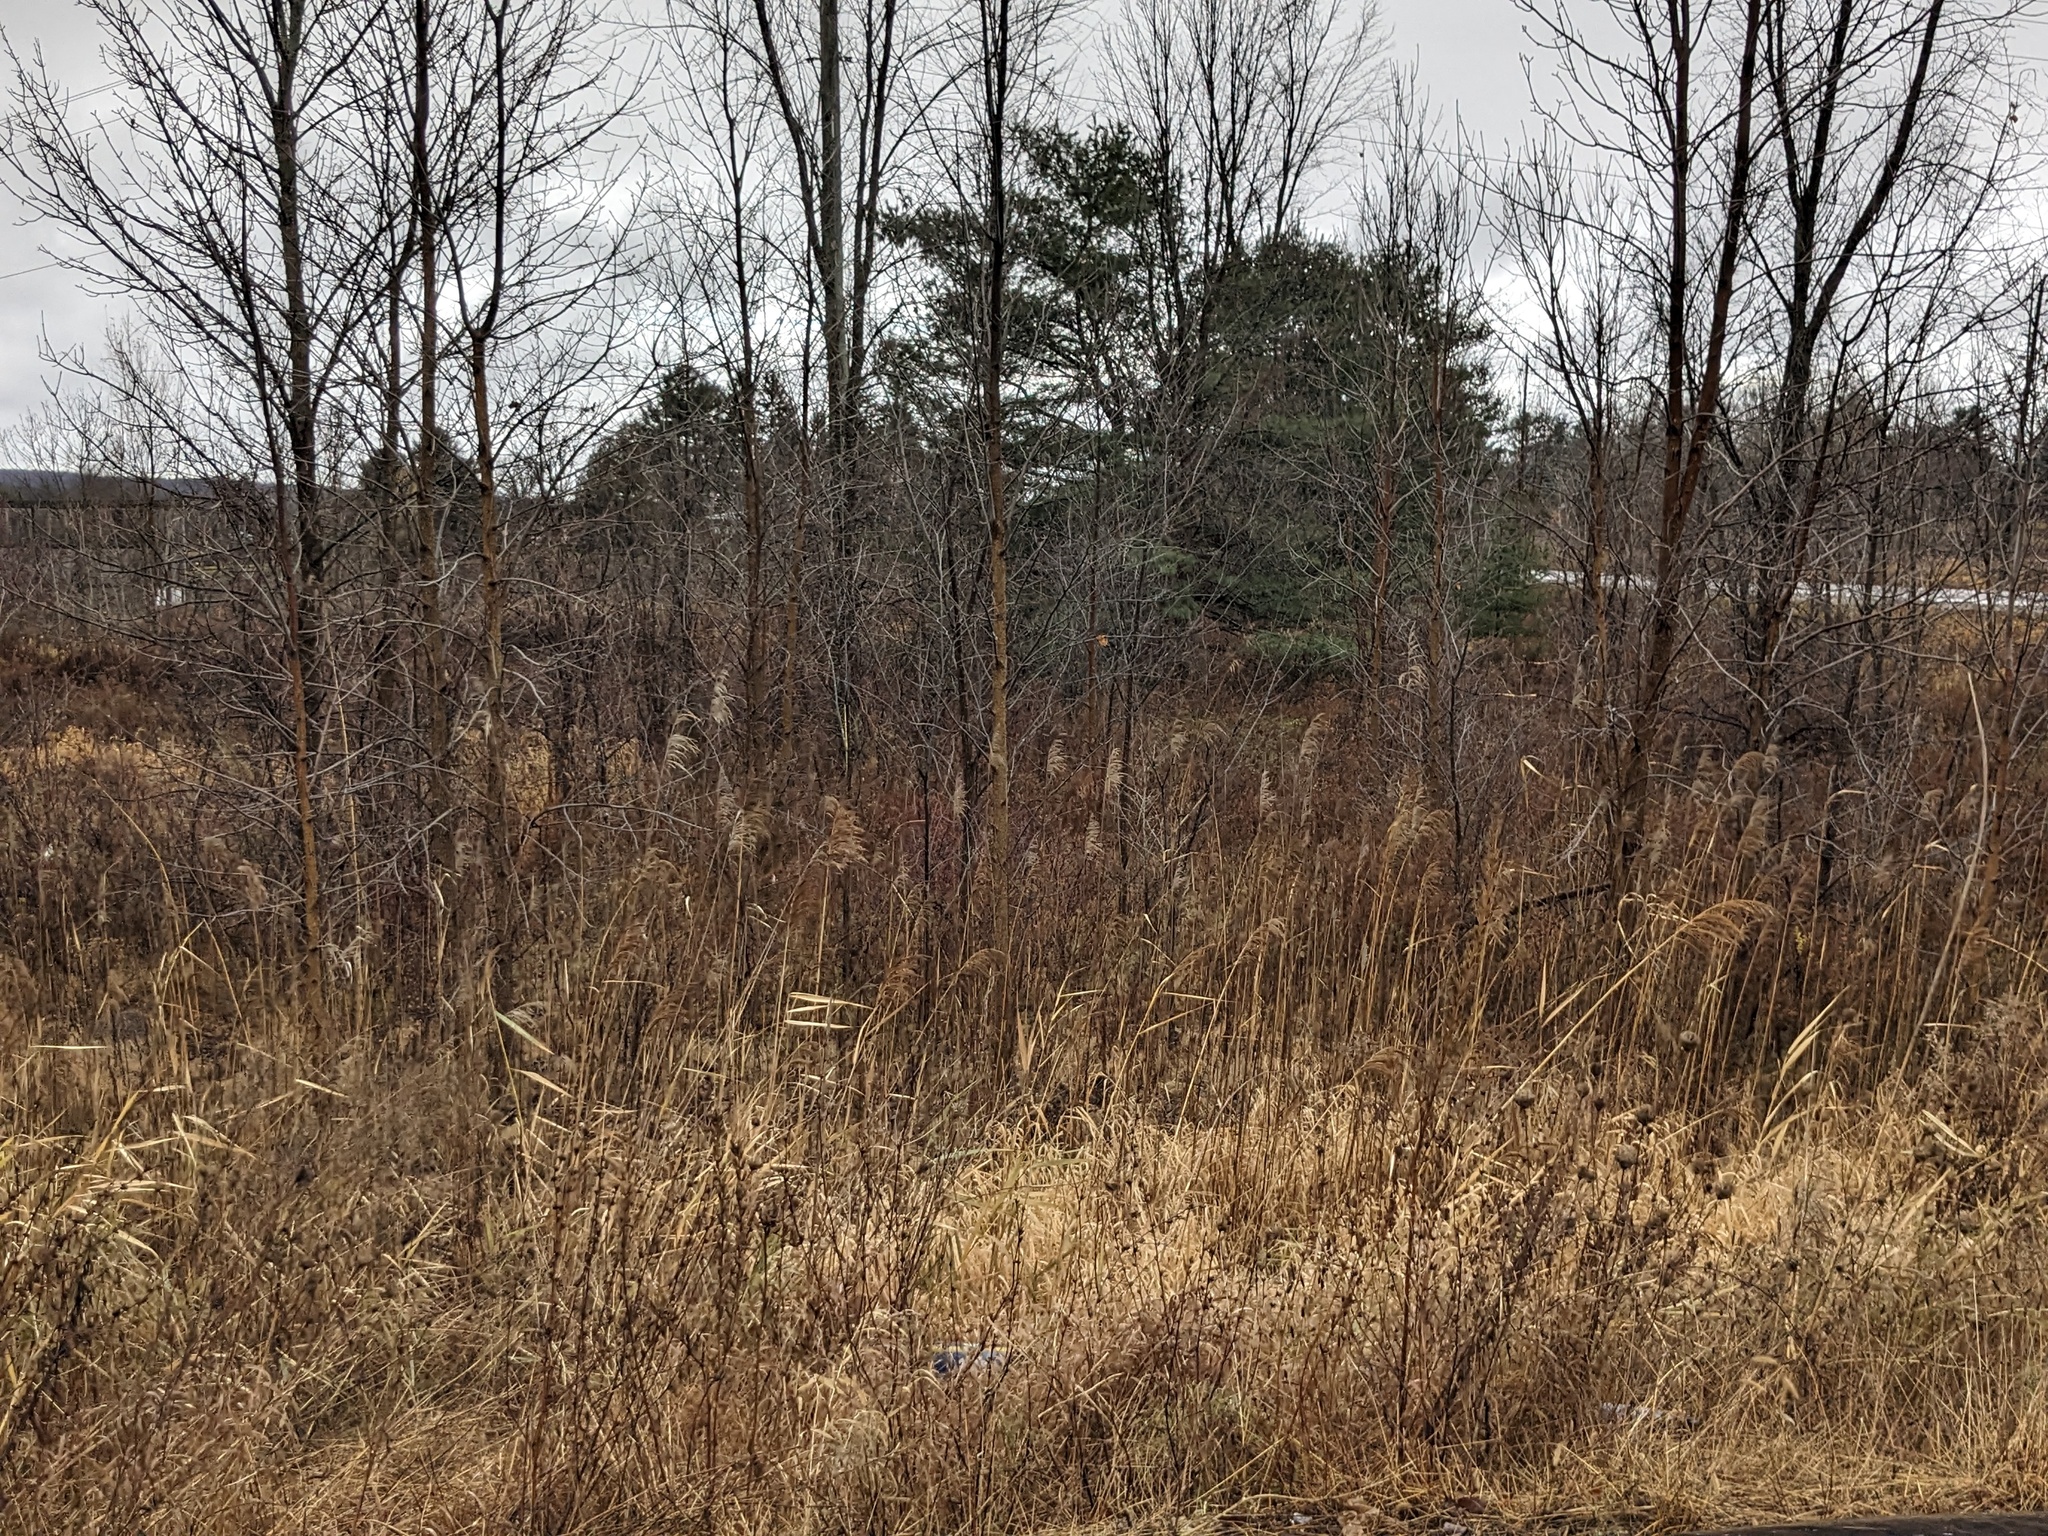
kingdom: Plantae
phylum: Tracheophyta
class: Liliopsida
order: Poales
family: Poaceae
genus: Phragmites
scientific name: Phragmites australis
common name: Common reed
